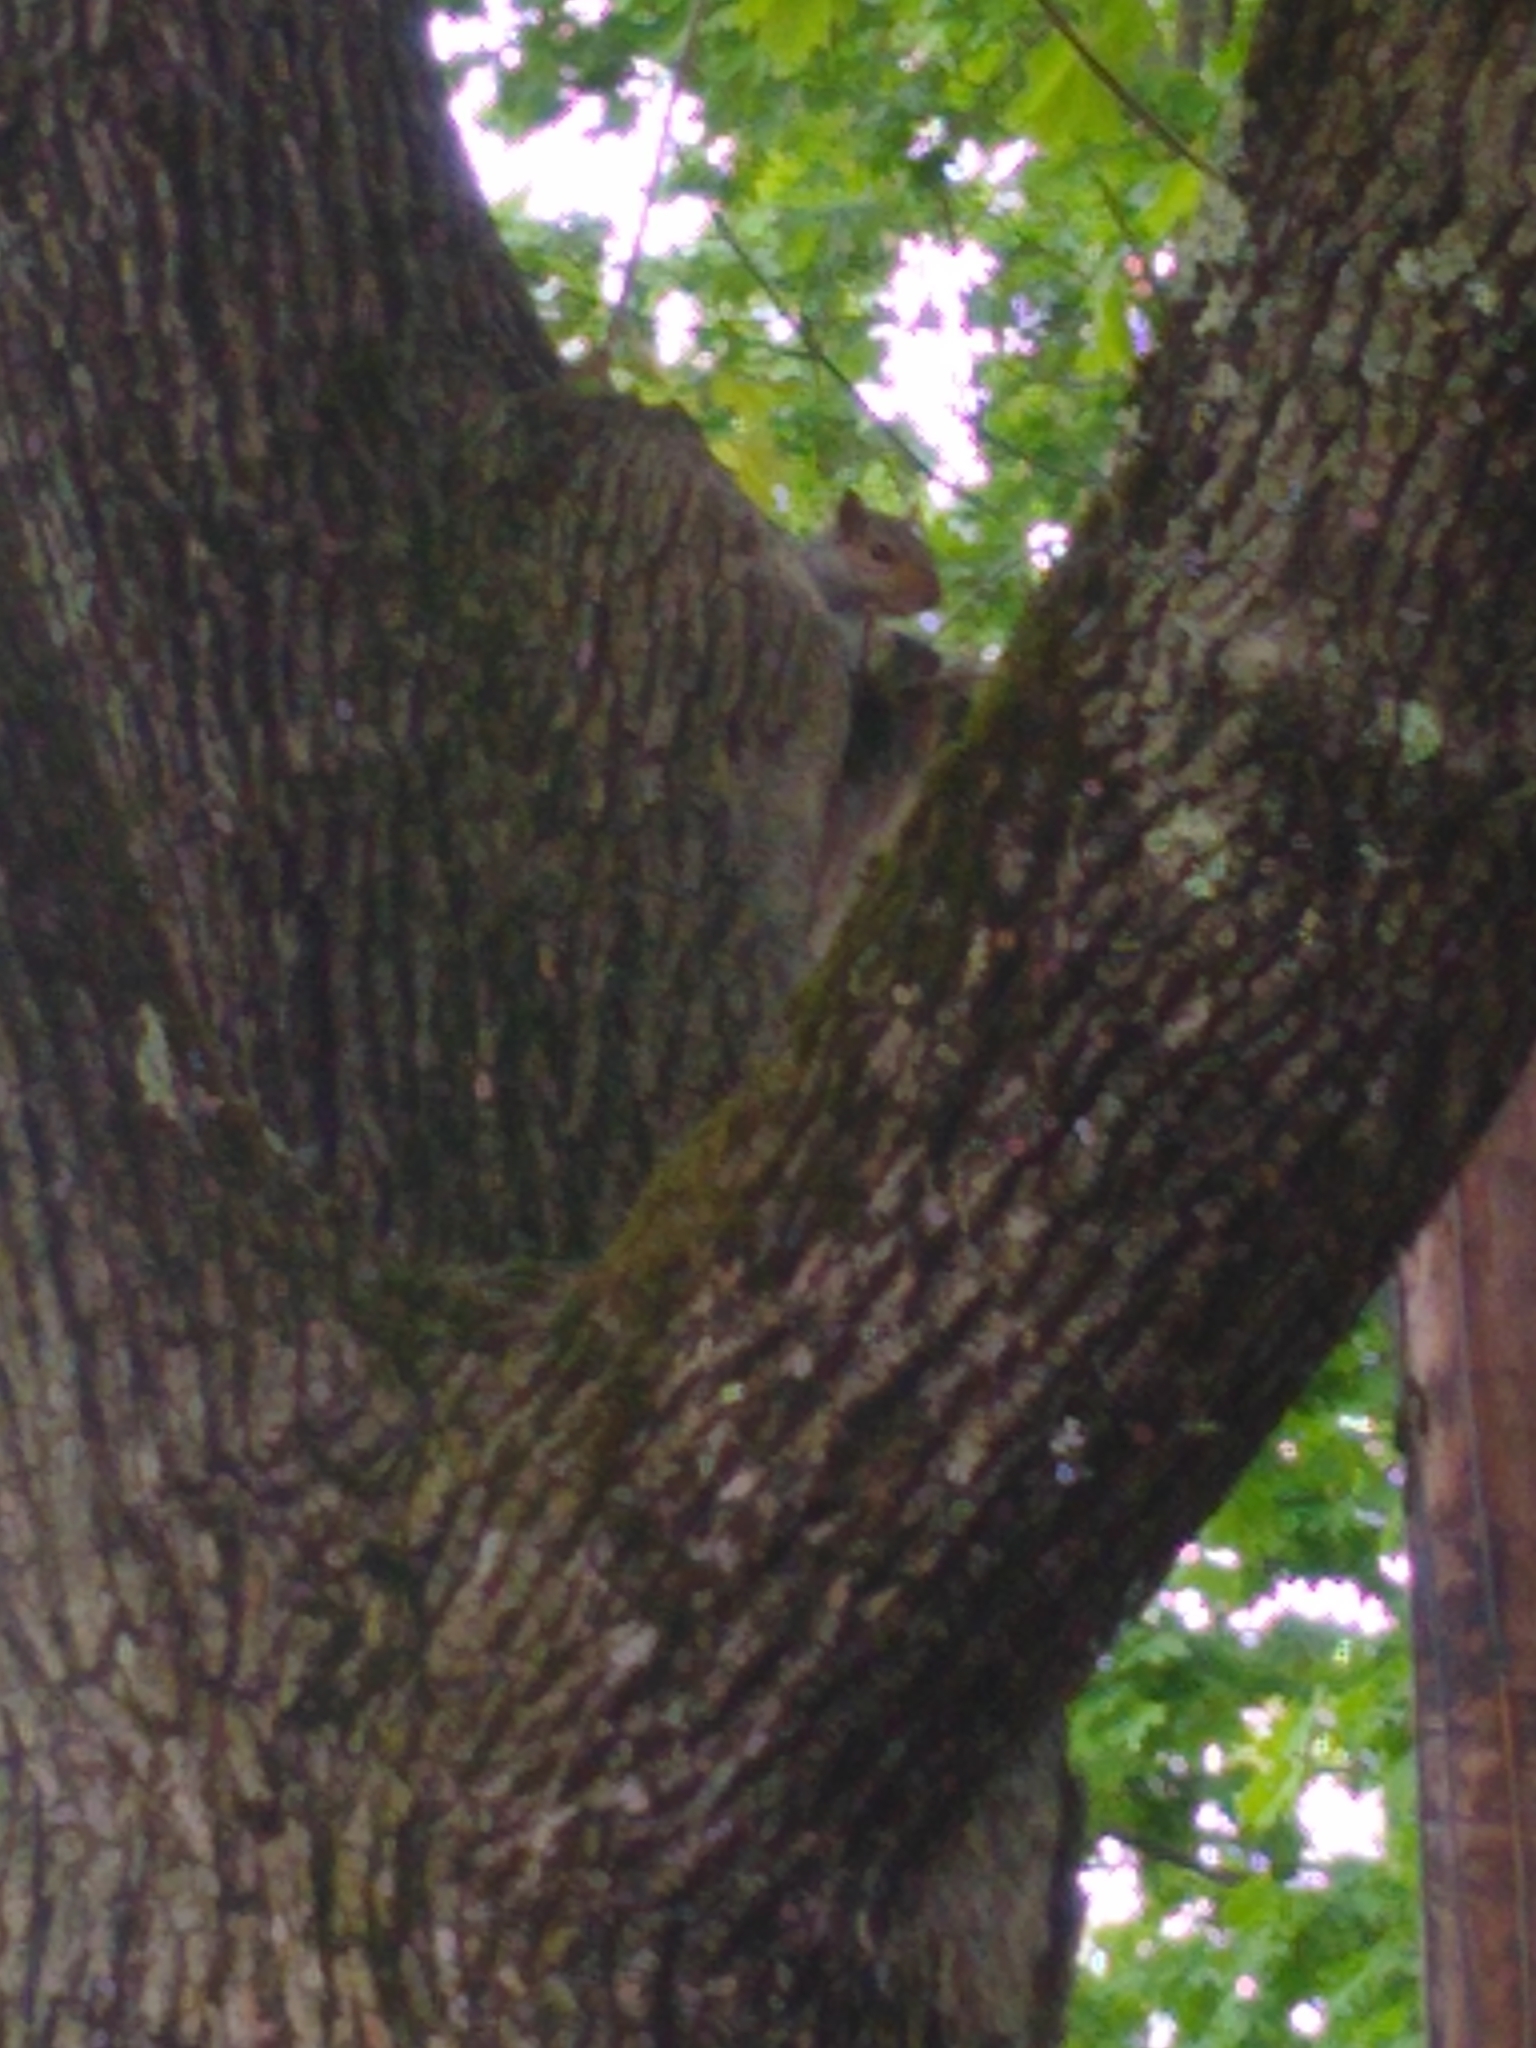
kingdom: Animalia
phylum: Chordata
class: Mammalia
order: Rodentia
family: Sciuridae
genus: Sciurus
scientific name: Sciurus carolinensis
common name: Eastern gray squirrel
